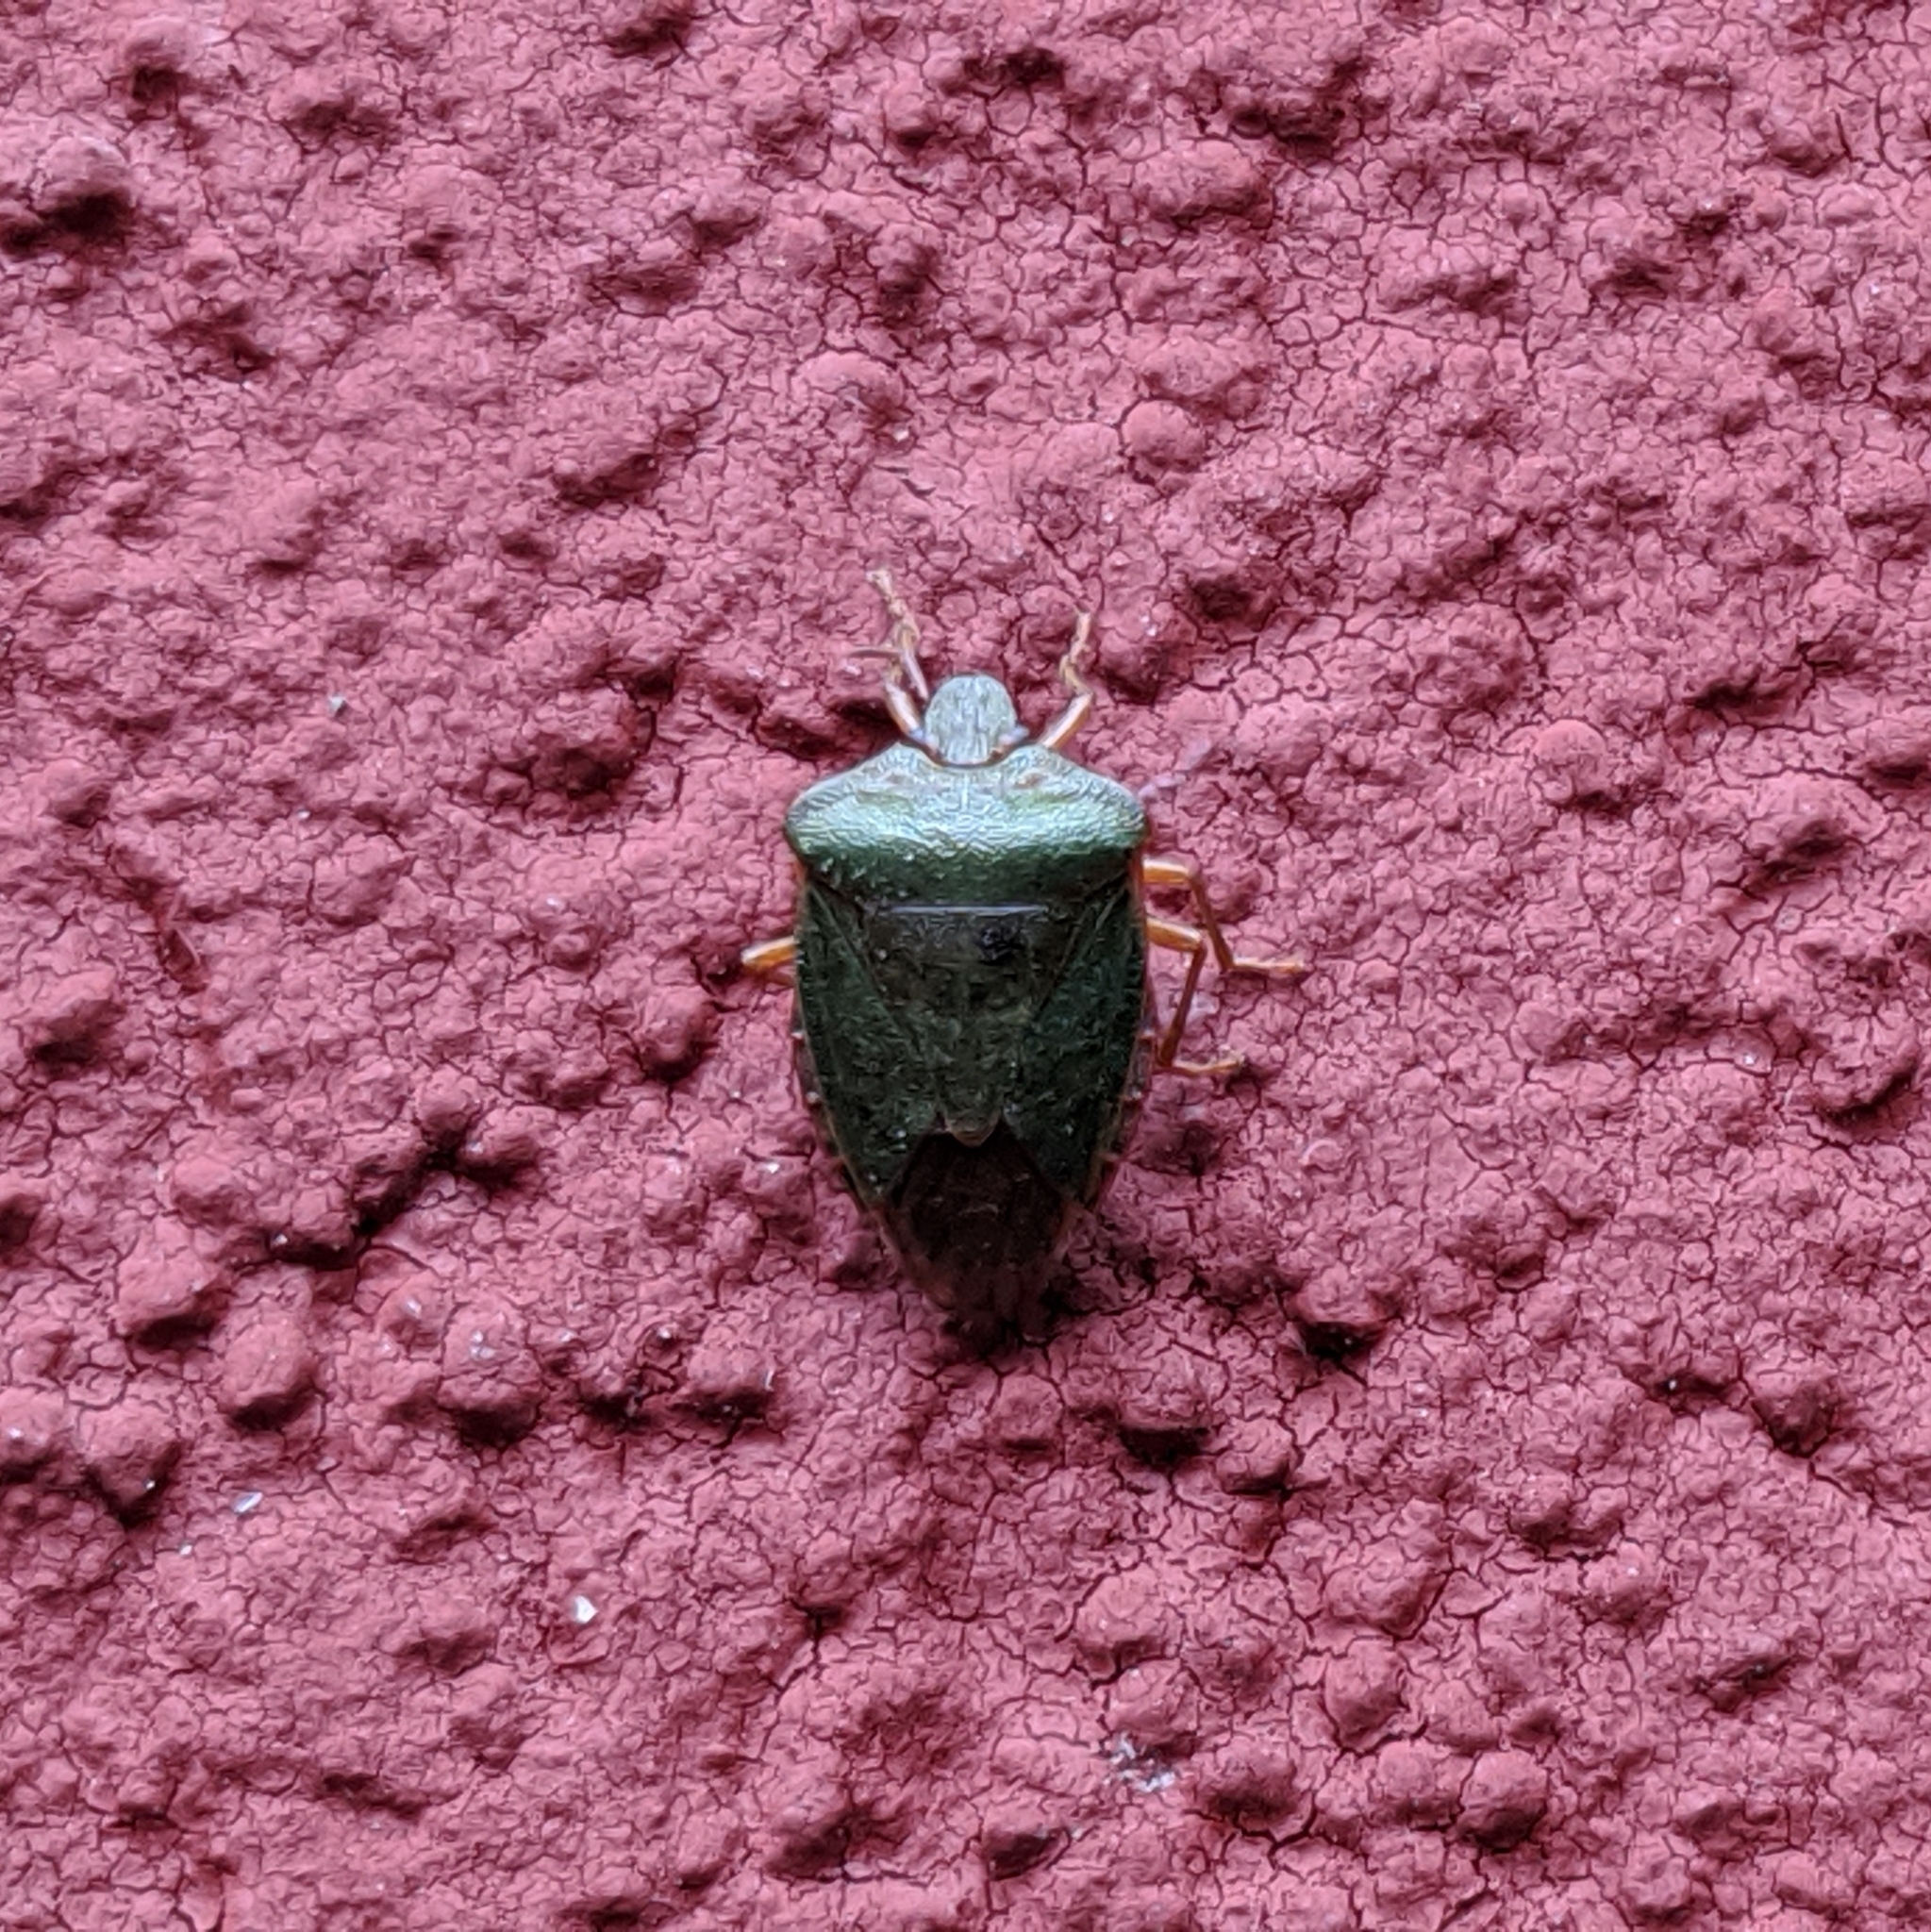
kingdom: Animalia
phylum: Arthropoda
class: Insecta
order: Hemiptera
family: Pentatomidae
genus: Palomena
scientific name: Palomena prasina
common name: Green shieldbug
